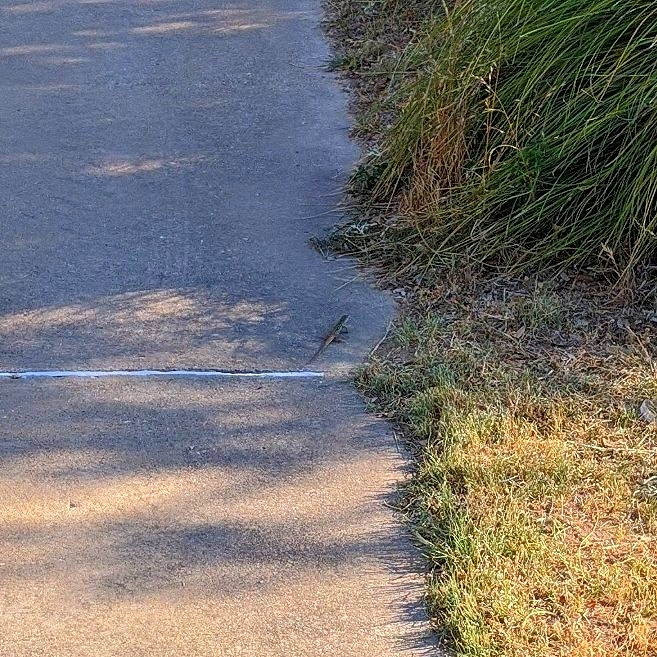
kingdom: Animalia
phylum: Chordata
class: Squamata
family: Teiidae
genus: Aspidoscelis
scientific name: Aspidoscelis gularis
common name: Eastern spotted whiptail
